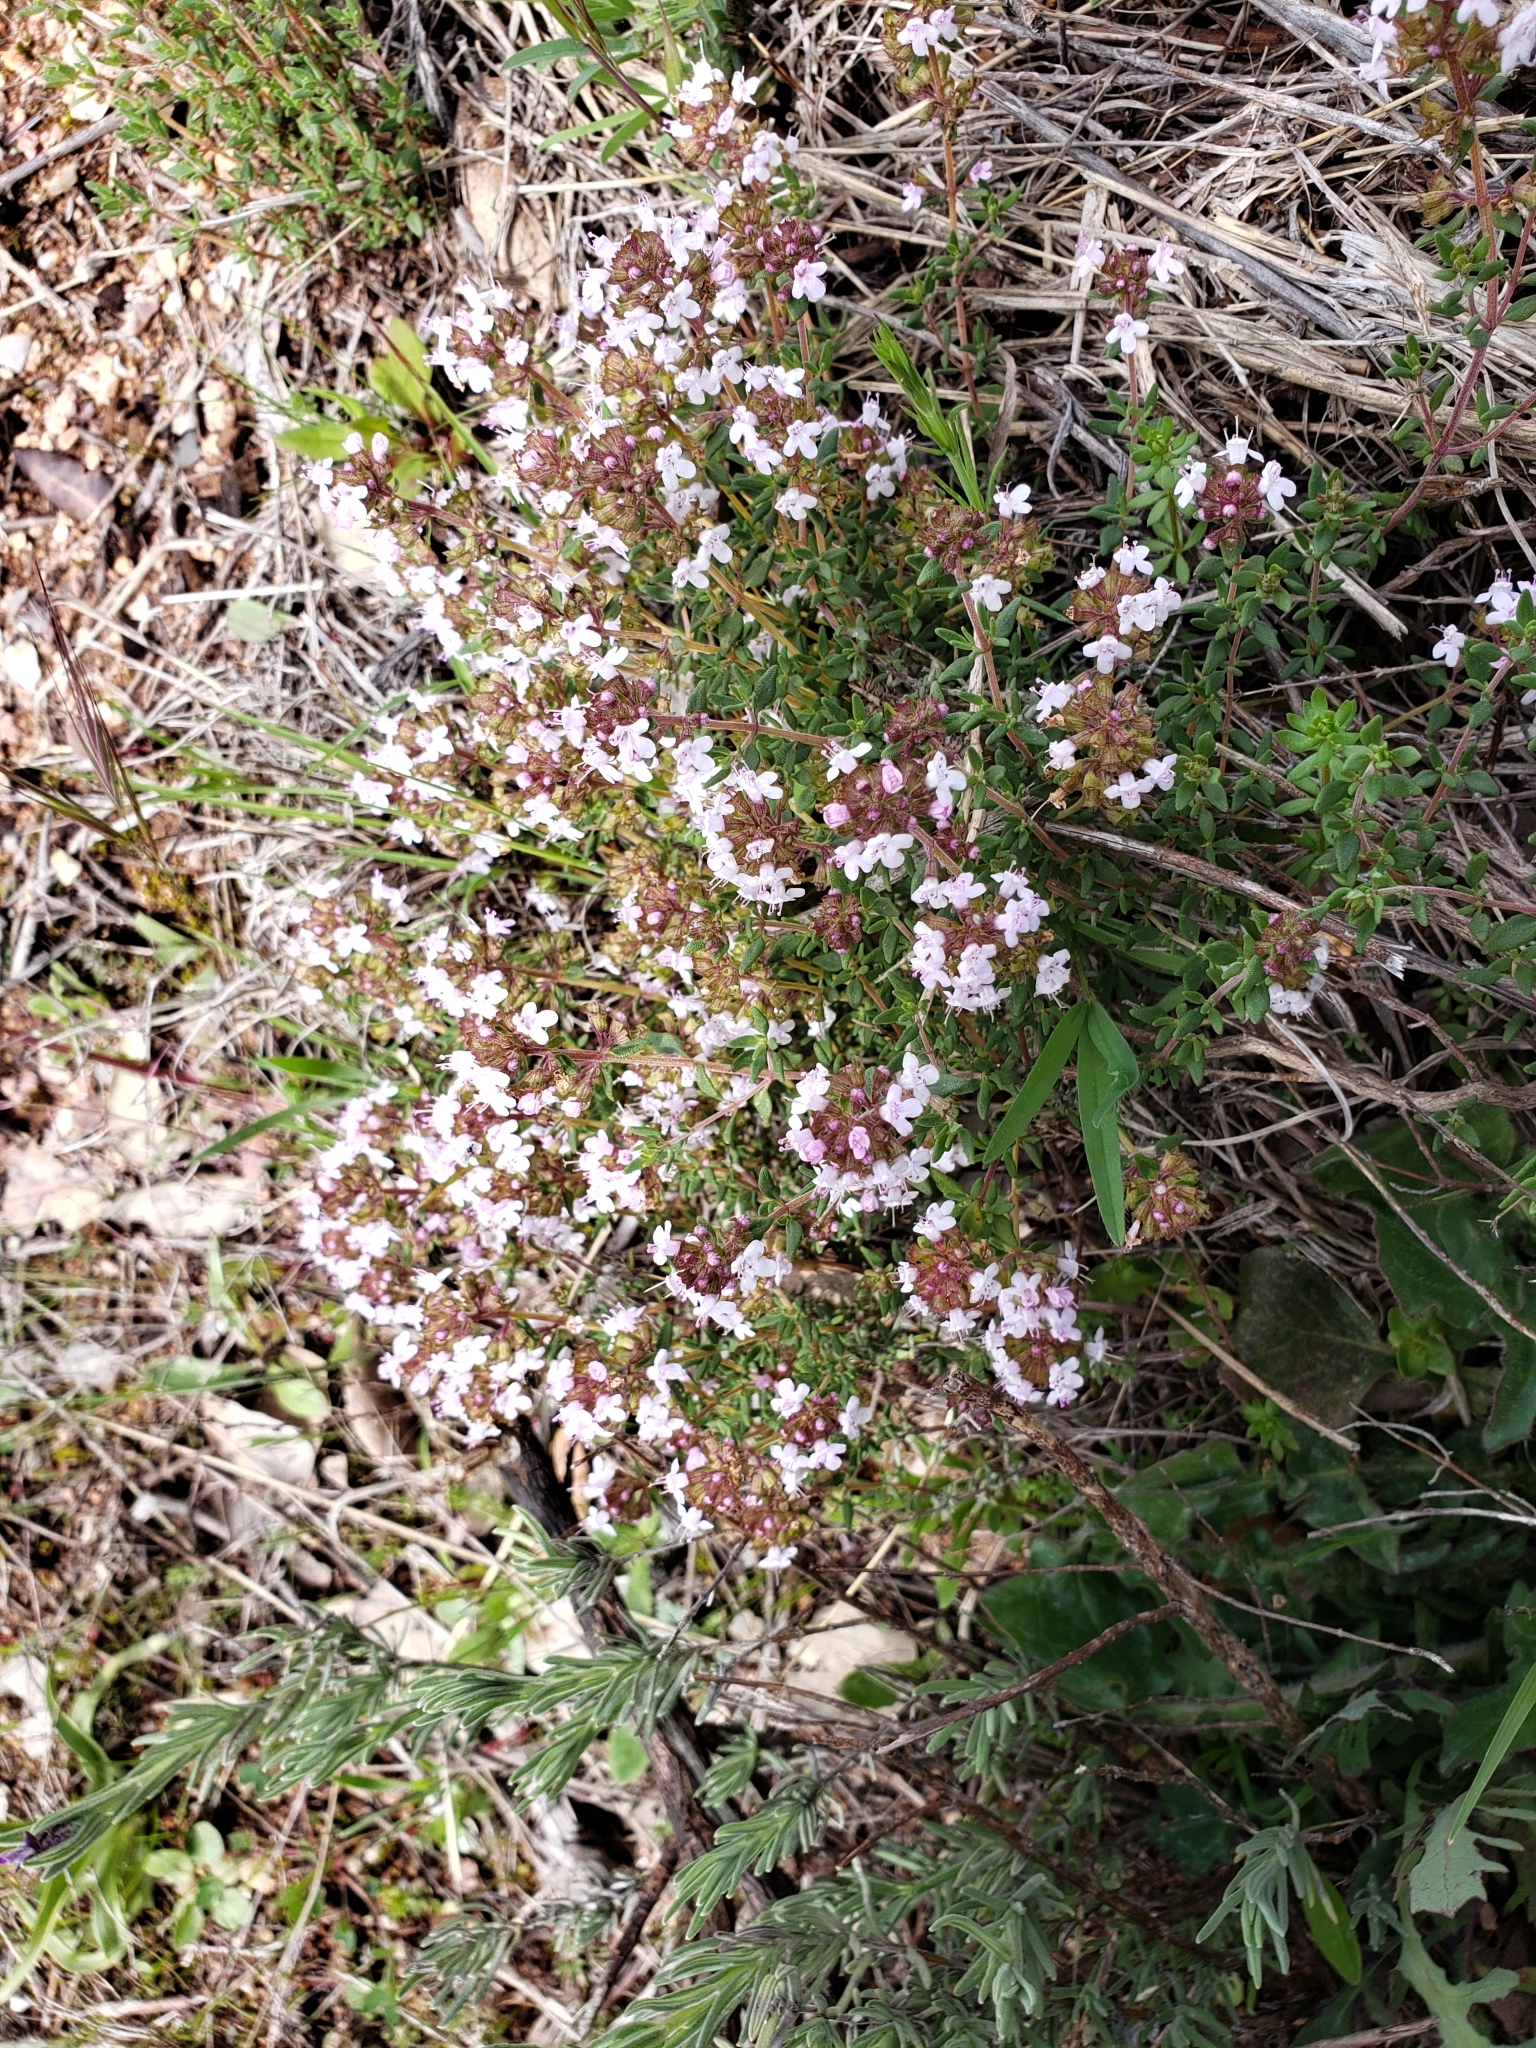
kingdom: Plantae
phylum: Tracheophyta
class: Magnoliopsida
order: Lamiales
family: Lamiaceae
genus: Thymus
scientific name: Thymus vulgaris
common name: Garden thyme
